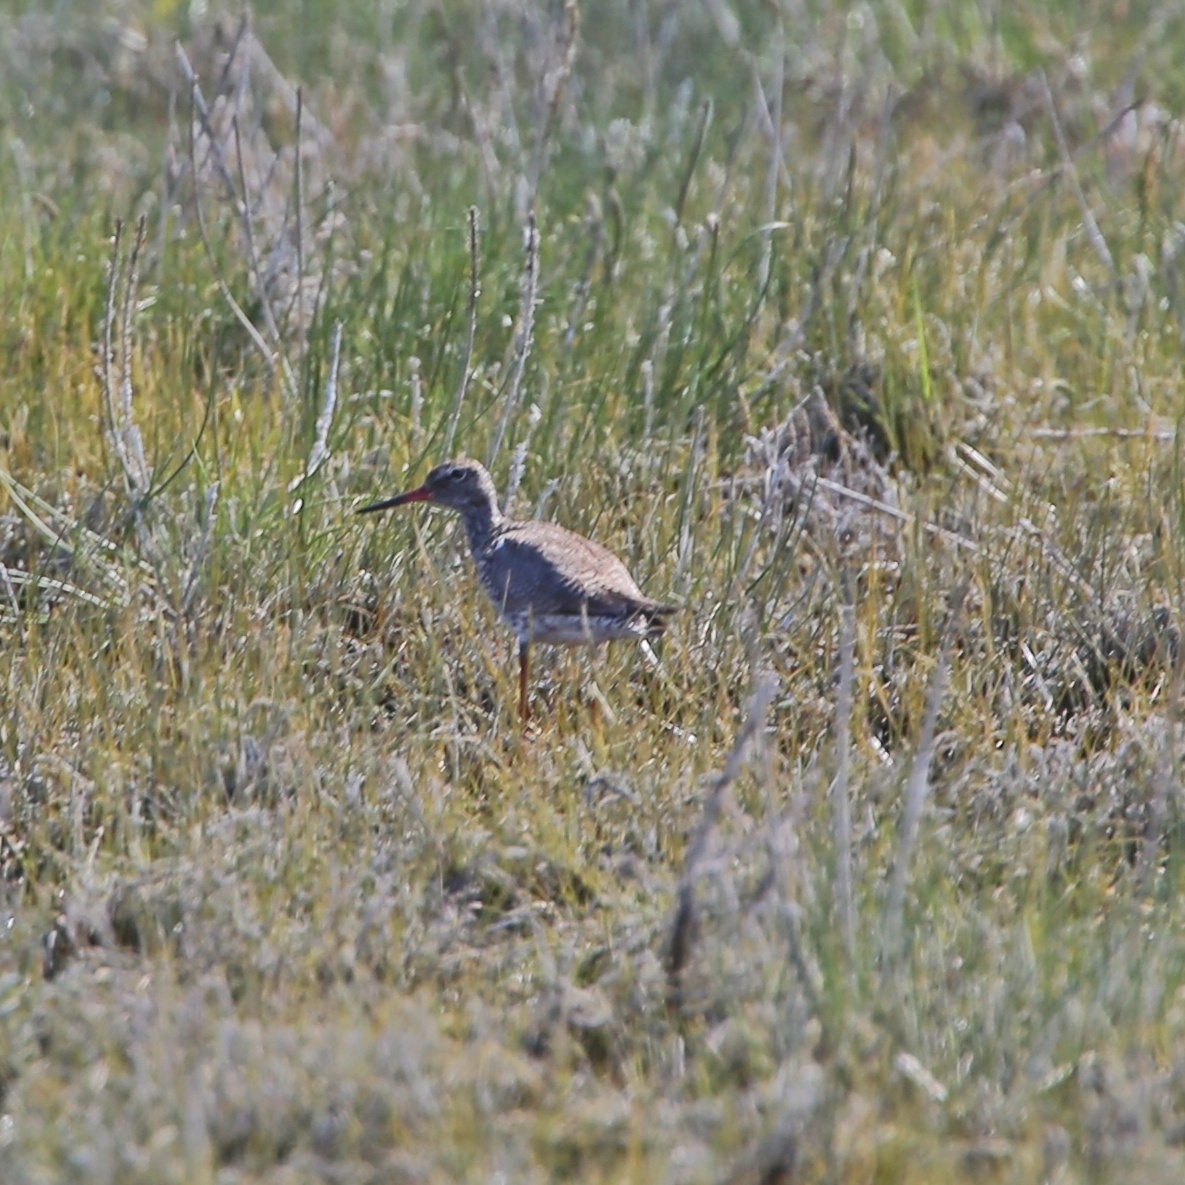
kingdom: Animalia
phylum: Chordata
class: Aves
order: Charadriiformes
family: Scolopacidae
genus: Tringa
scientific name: Tringa totanus
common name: Common redshank
